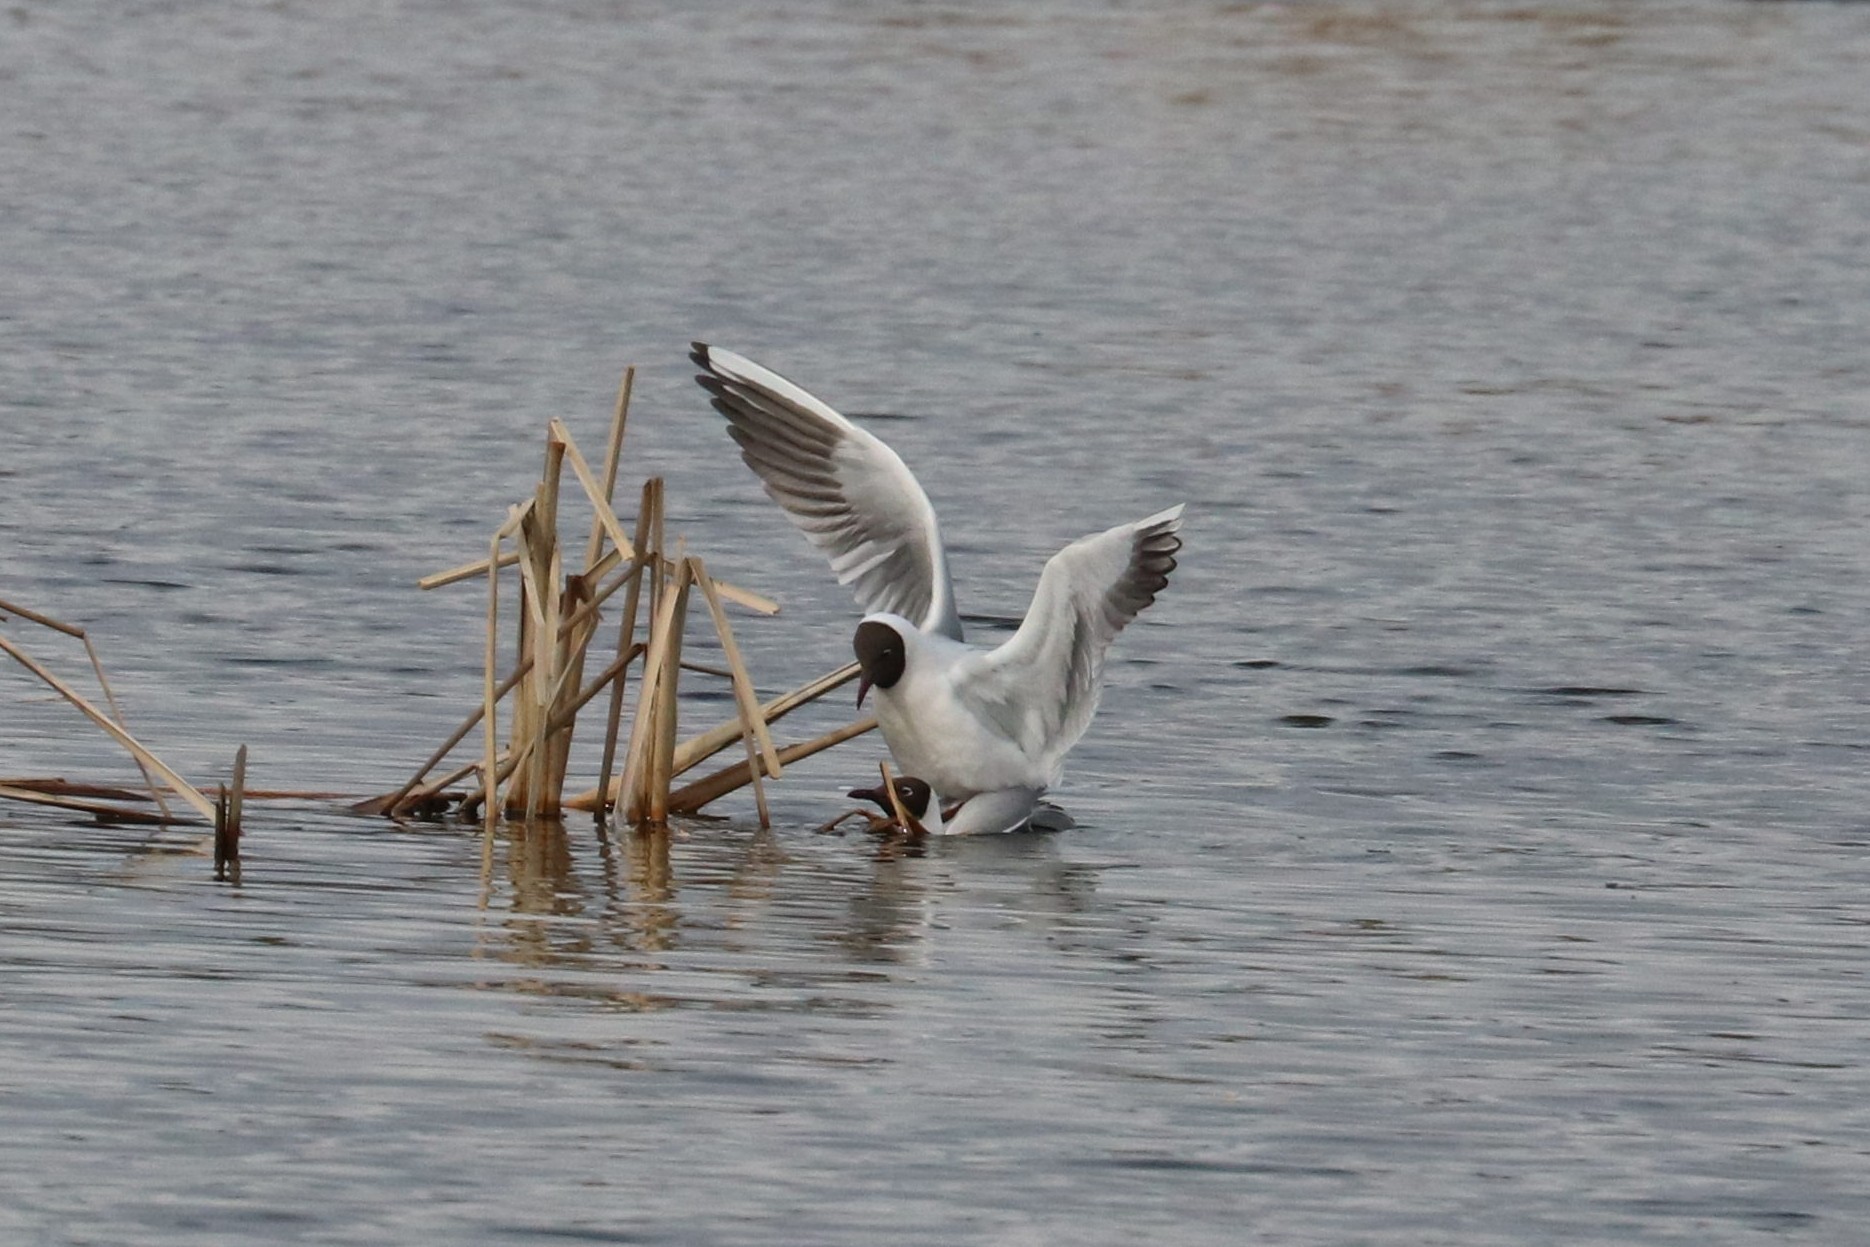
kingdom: Animalia
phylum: Chordata
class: Aves
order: Charadriiformes
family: Laridae
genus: Chroicocephalus
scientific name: Chroicocephalus ridibundus
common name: Black-headed gull
